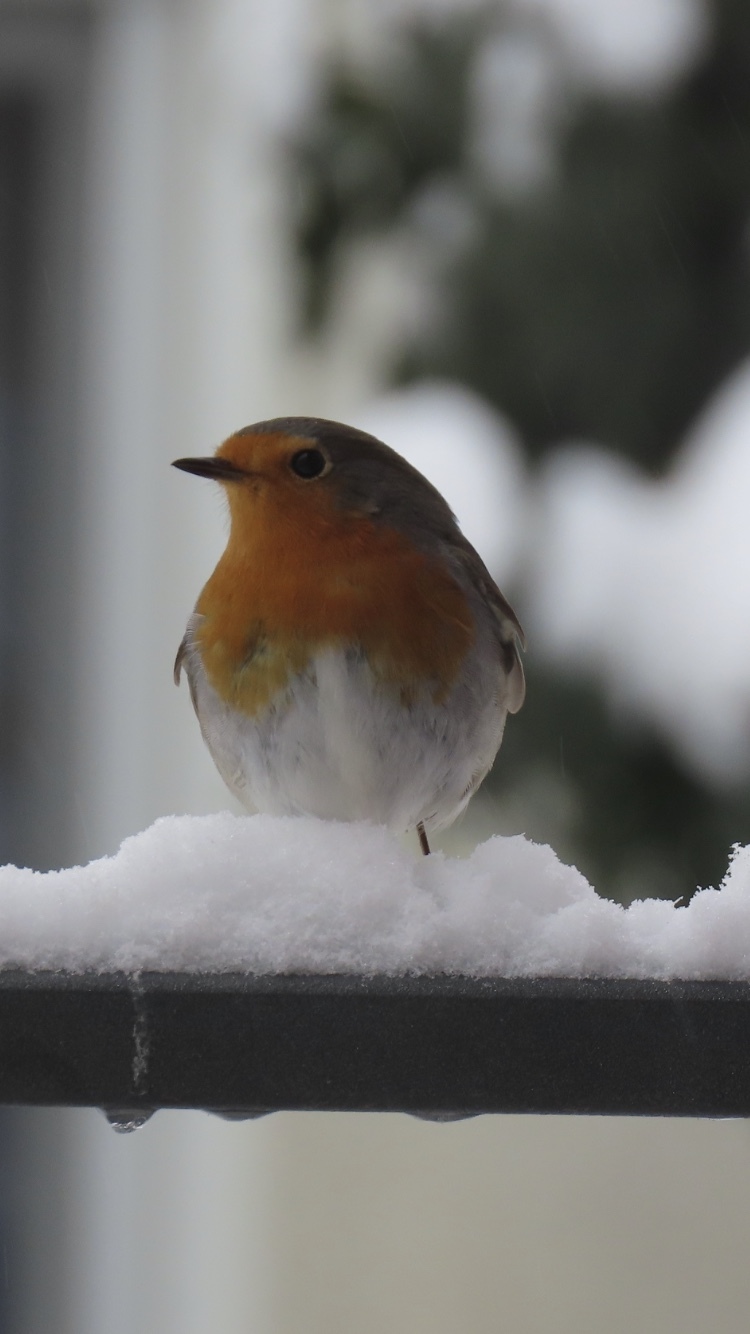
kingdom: Animalia
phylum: Chordata
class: Aves
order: Passeriformes
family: Muscicapidae
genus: Erithacus
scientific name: Erithacus rubecula
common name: European robin
